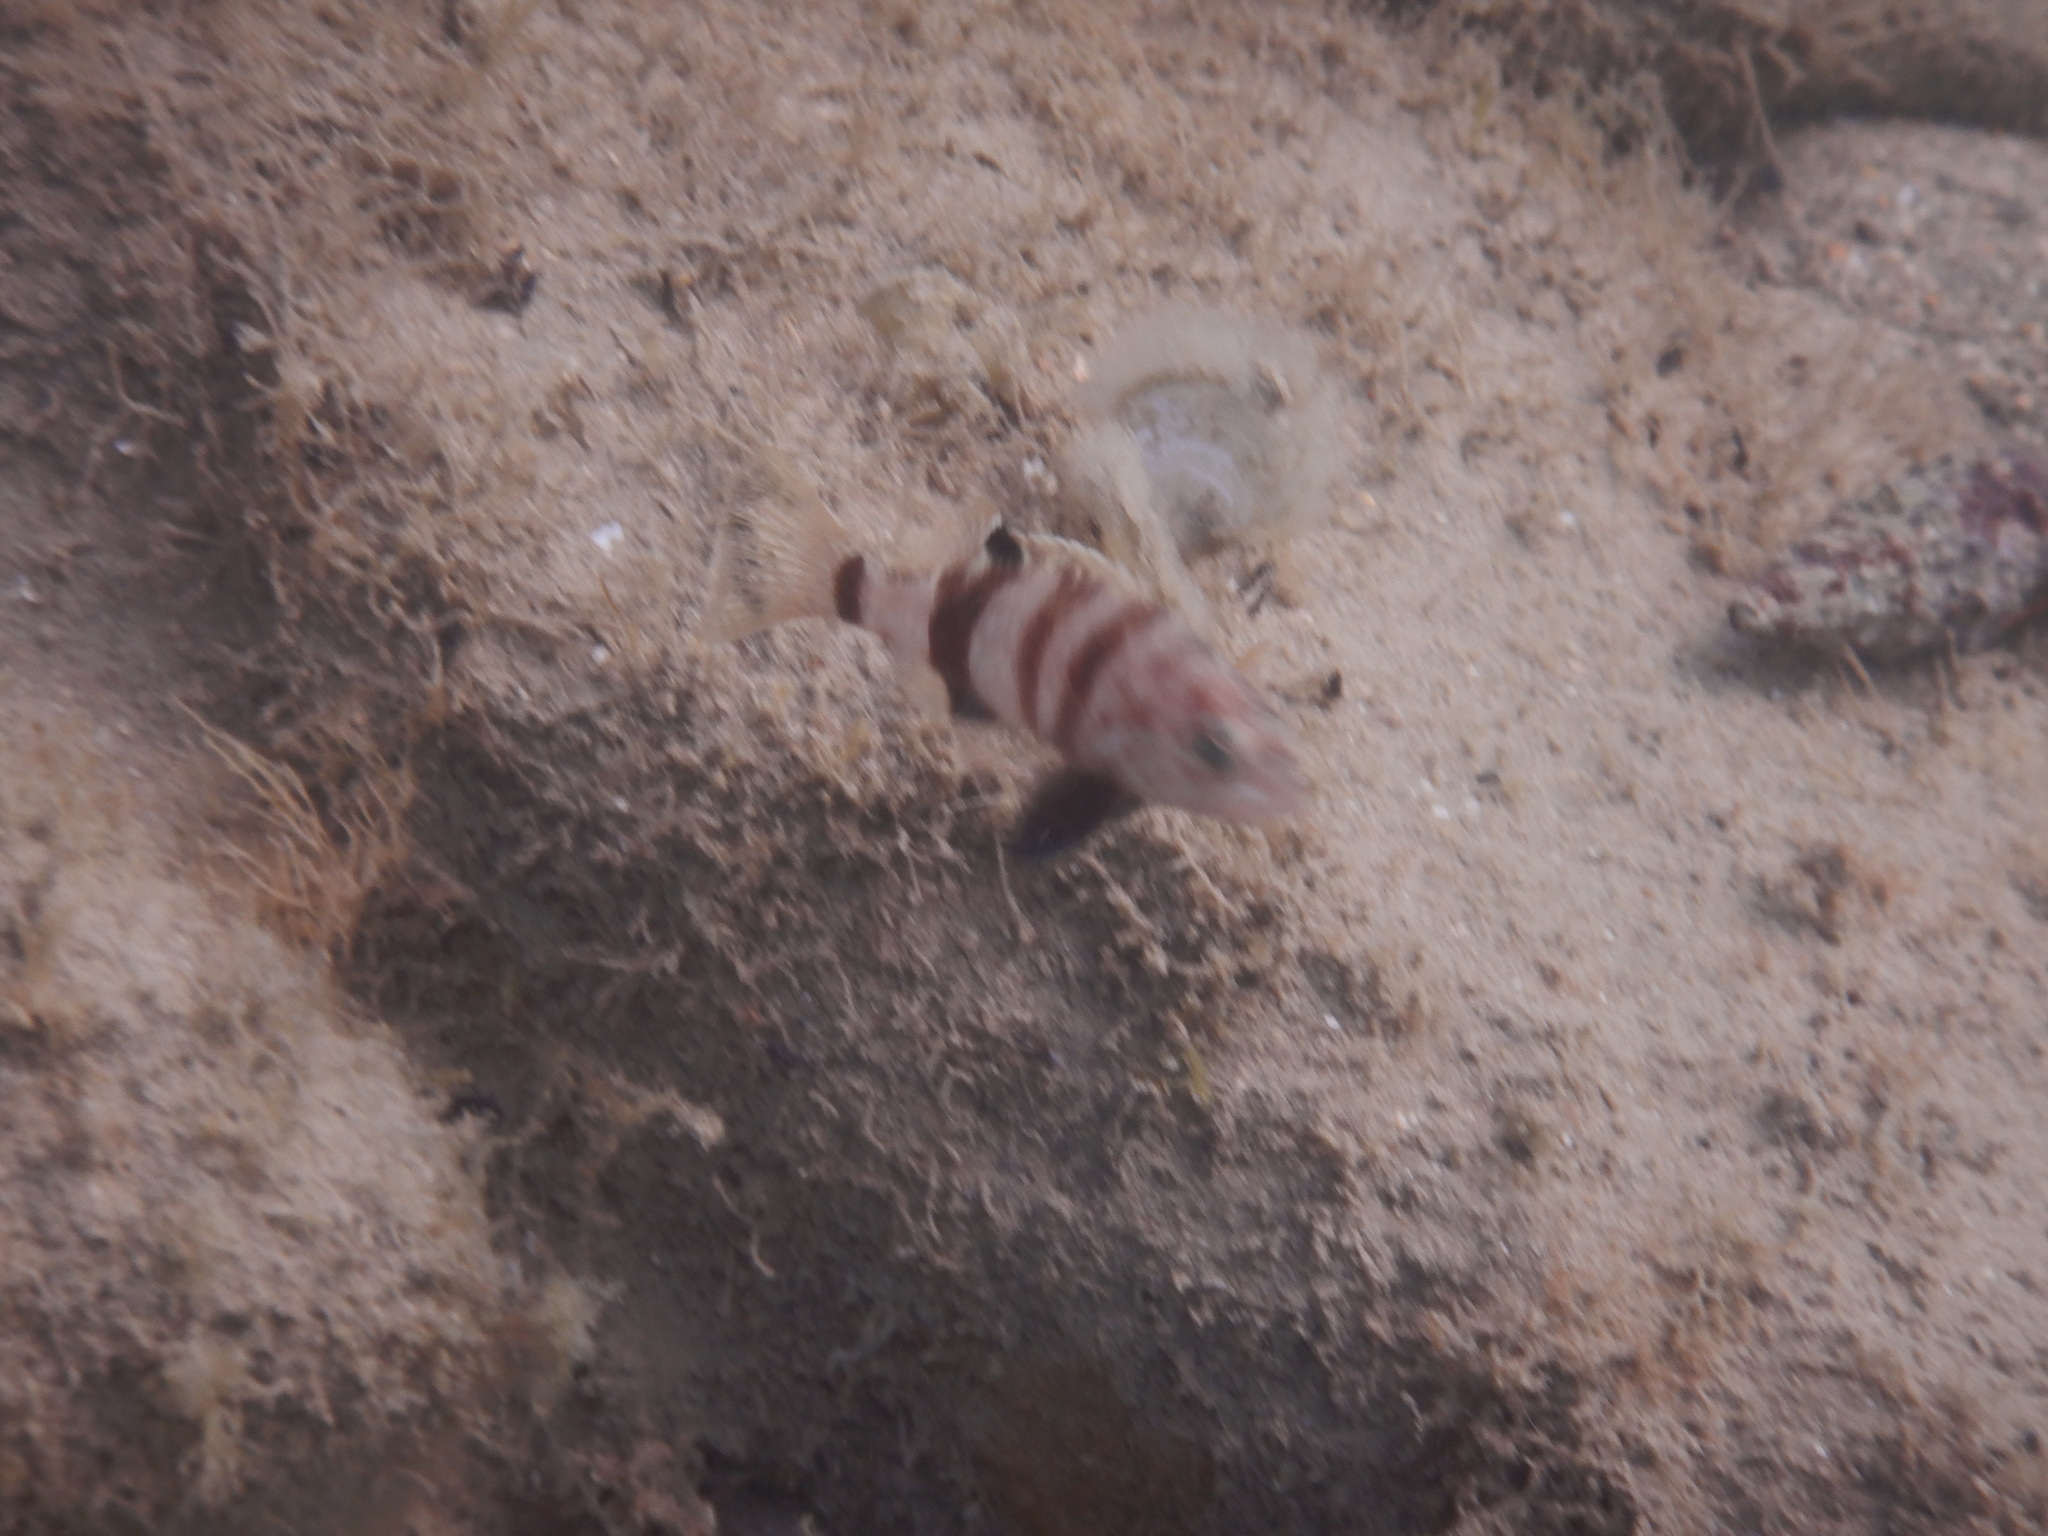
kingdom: Animalia
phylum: Chordata
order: Perciformes
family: Serranidae
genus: Serranus
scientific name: Serranus hepatus
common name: Brown comber
